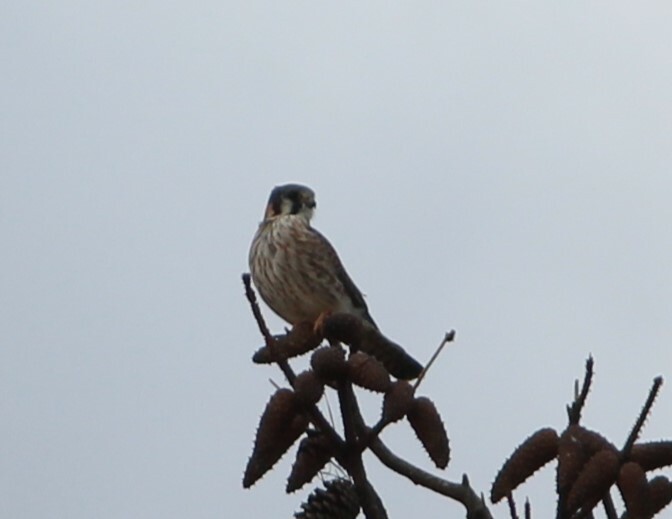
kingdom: Animalia
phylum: Chordata
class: Aves
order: Falconiformes
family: Falconidae
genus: Falco
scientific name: Falco sparverius
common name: American kestrel
